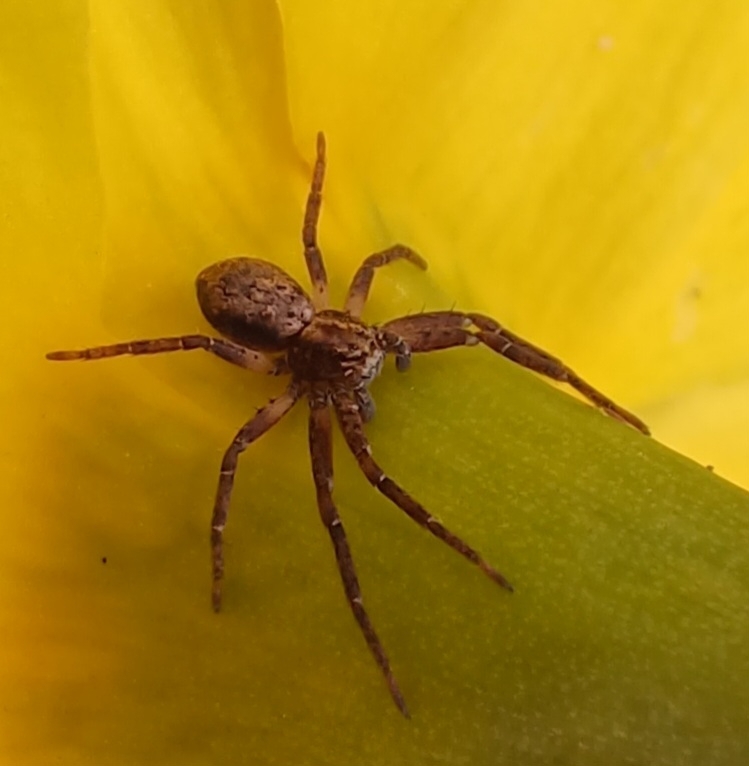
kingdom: Animalia
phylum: Arthropoda
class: Arachnida
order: Araneae
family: Philodromidae
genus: Philodromus
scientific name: Philodromus cespitum
